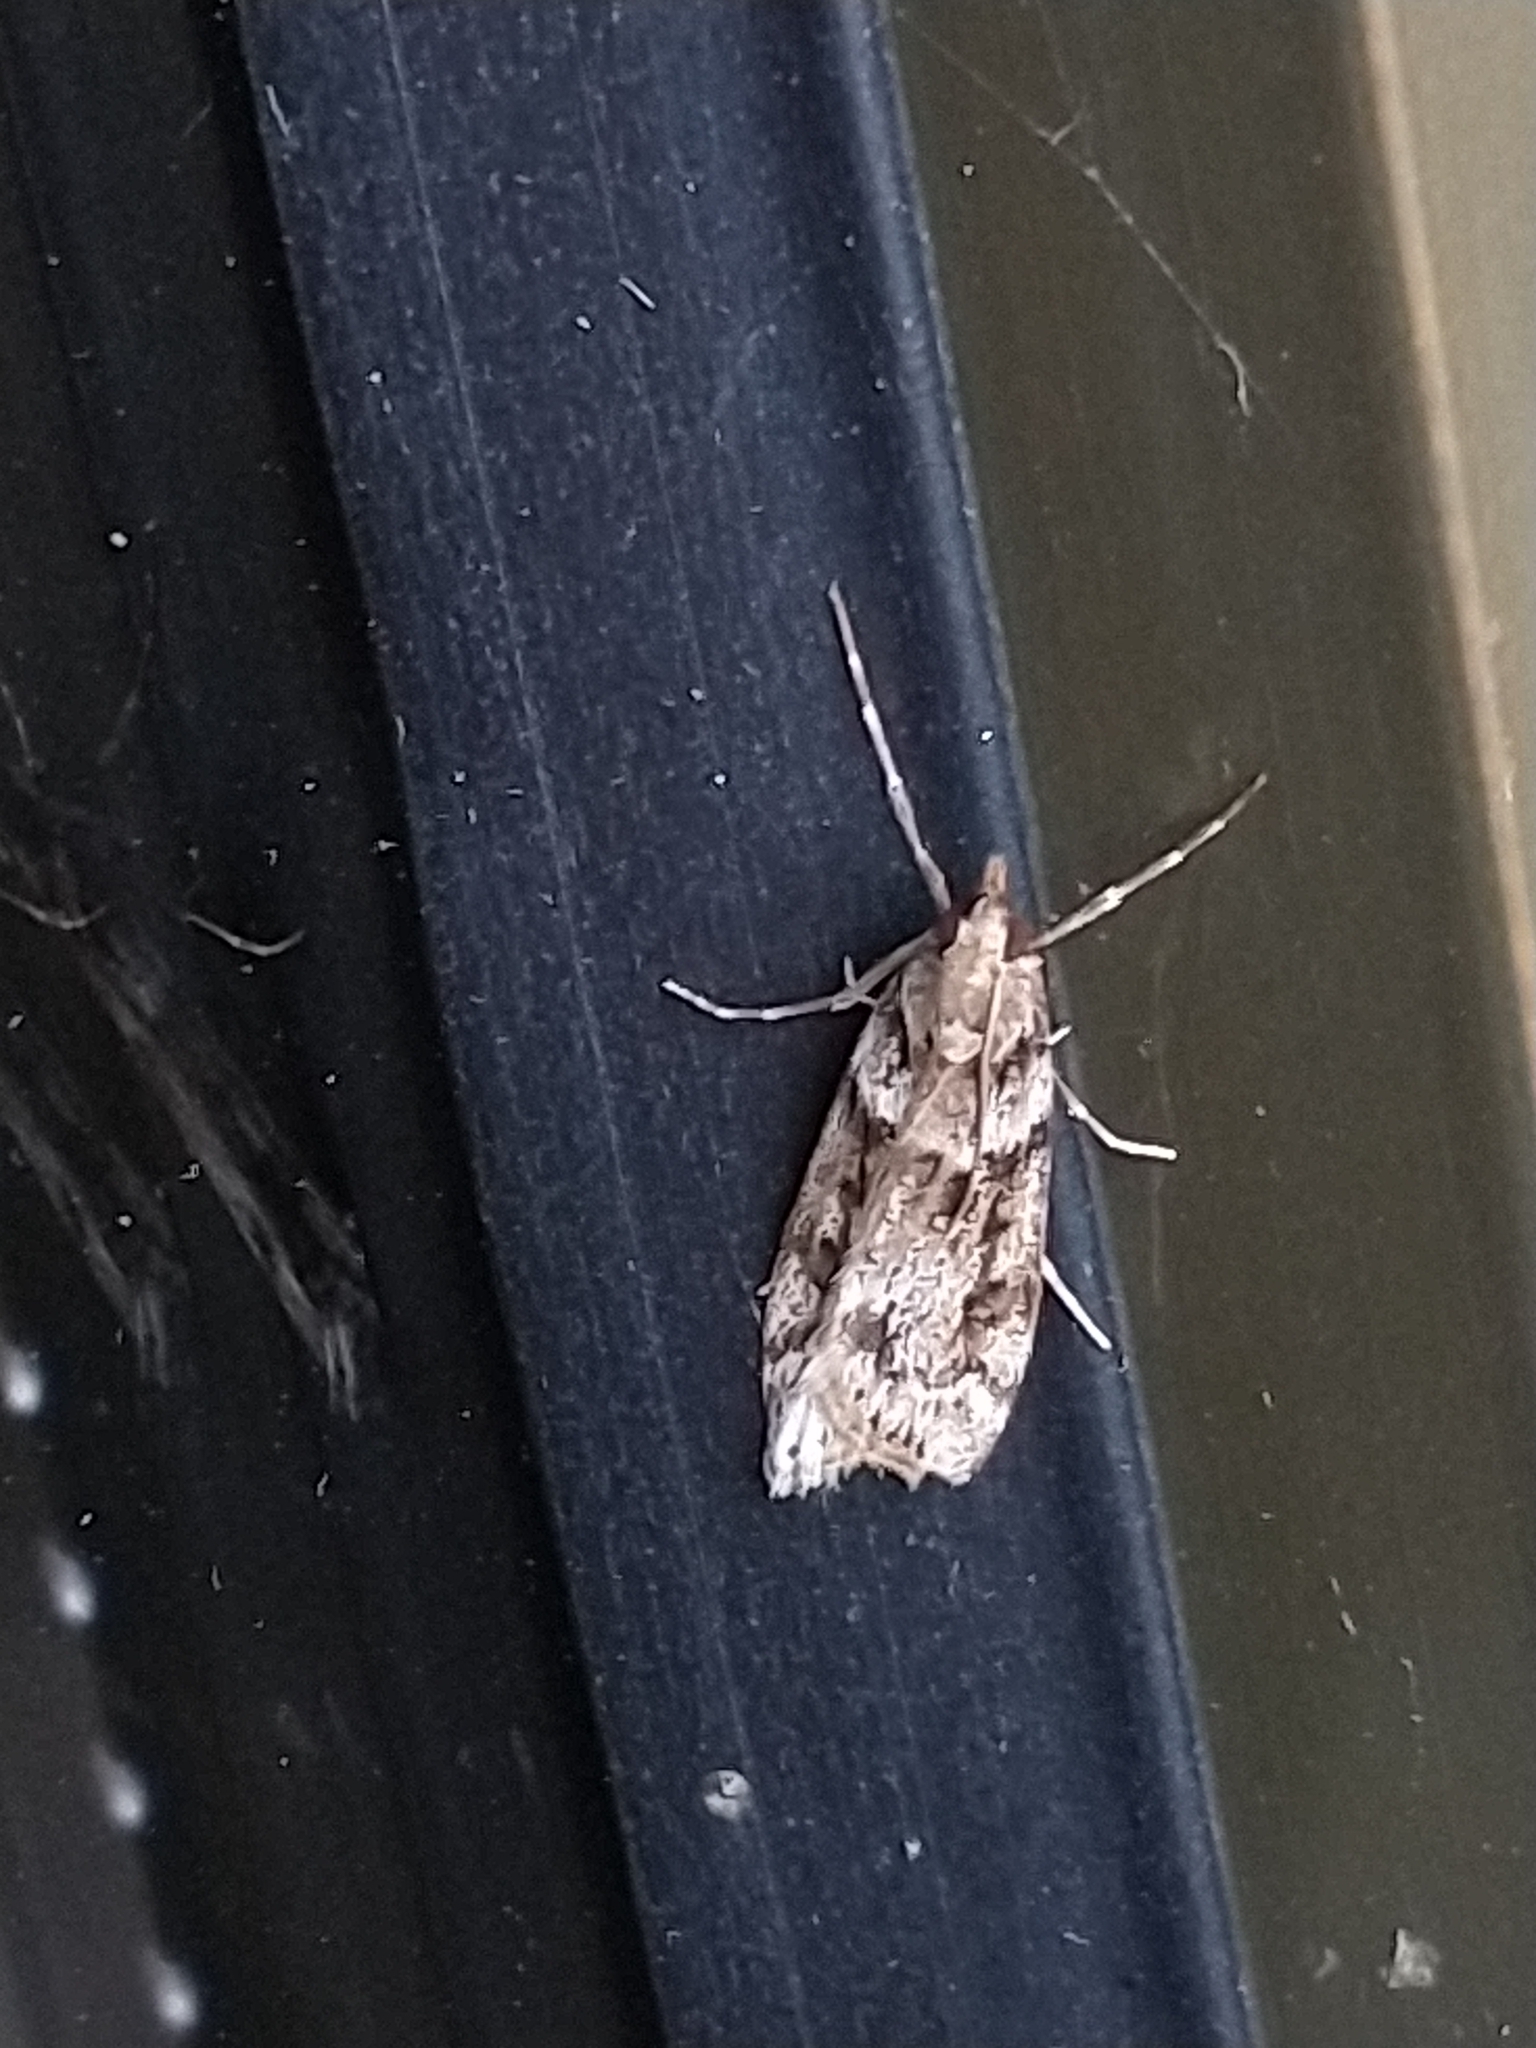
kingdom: Animalia
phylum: Arthropoda
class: Insecta
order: Lepidoptera
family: Crambidae
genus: Eudonia
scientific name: Eudonia angustea
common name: Narrow-winged grey
